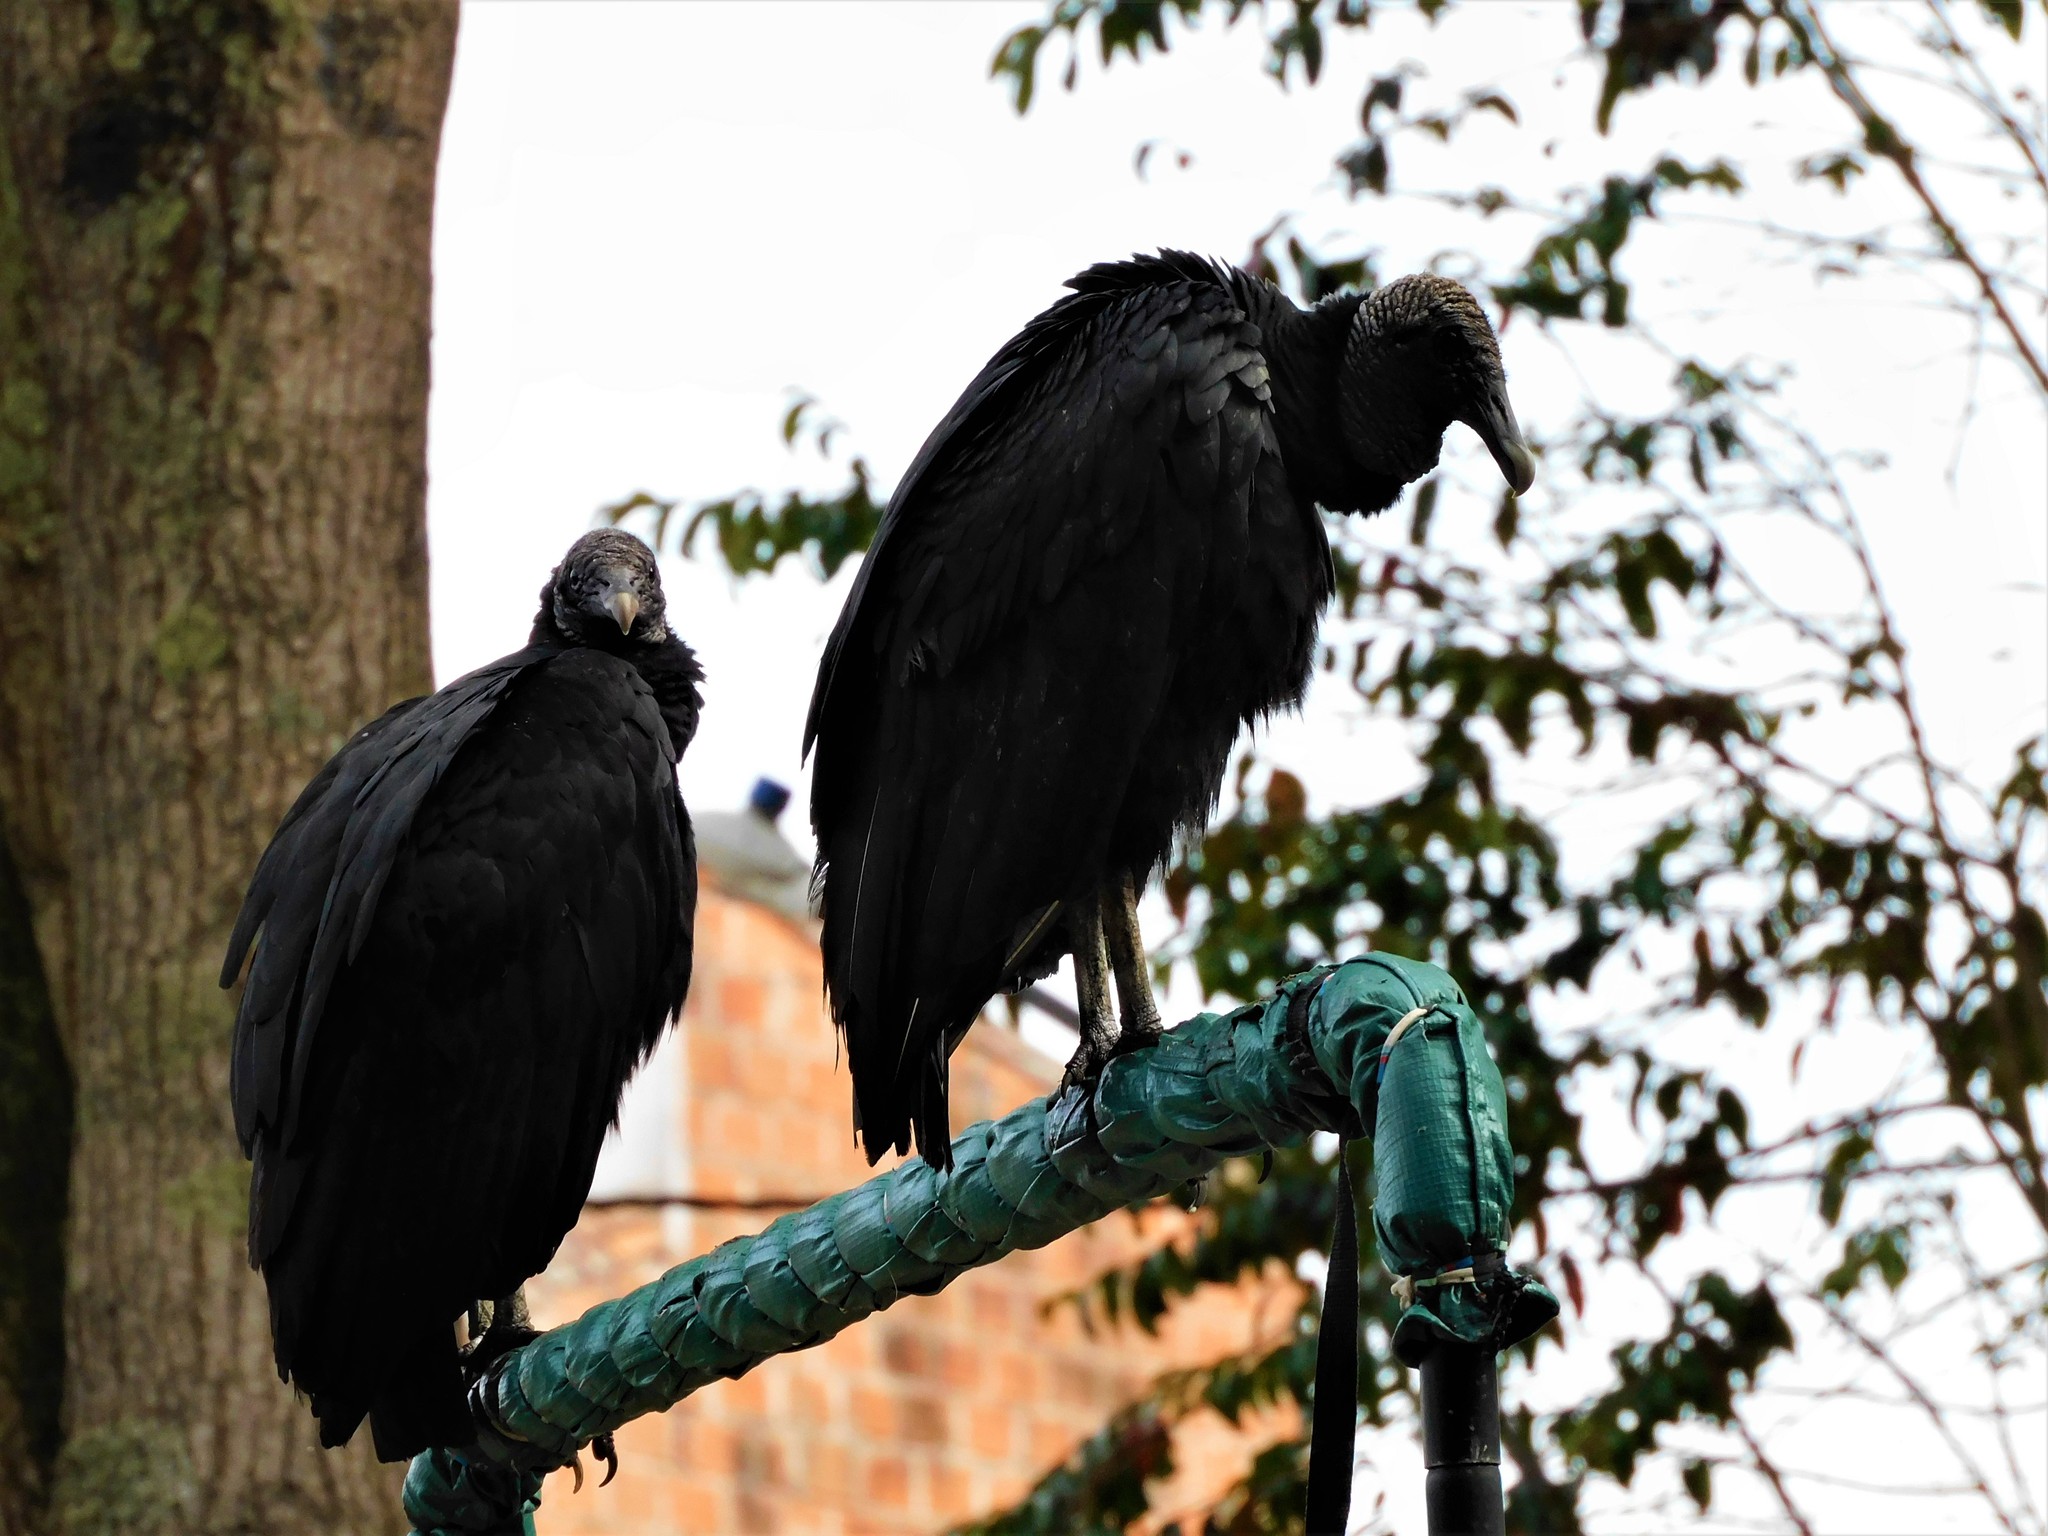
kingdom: Animalia
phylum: Chordata
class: Aves
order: Accipitriformes
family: Cathartidae
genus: Coragyps
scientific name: Coragyps atratus
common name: Black vulture
